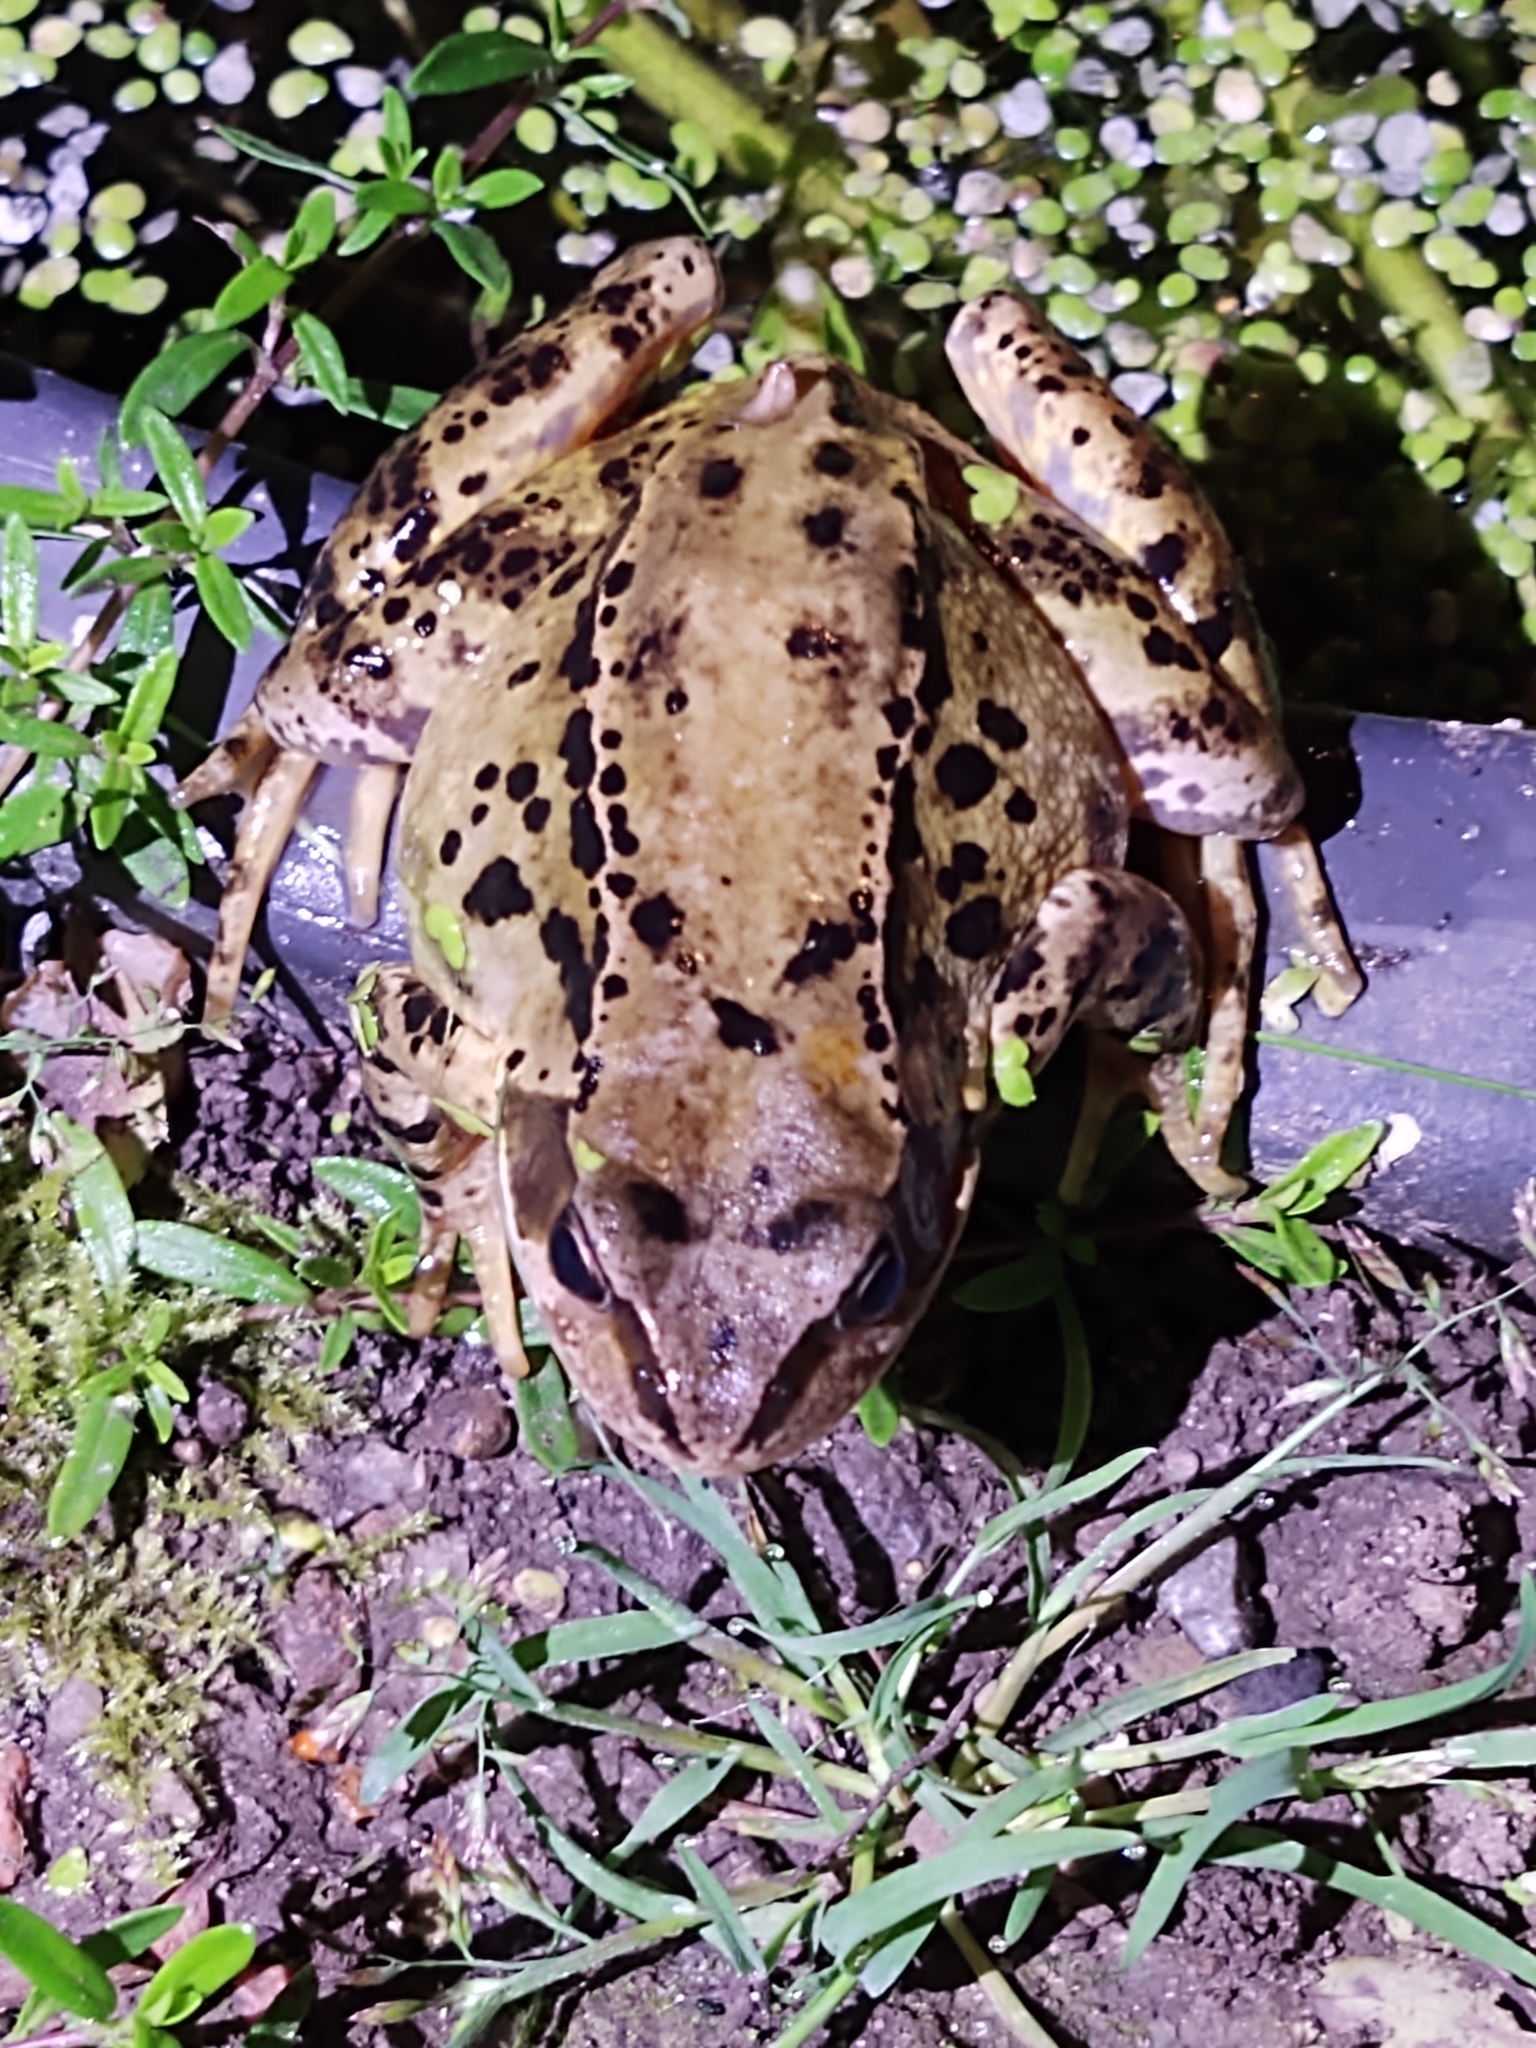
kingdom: Animalia
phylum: Chordata
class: Amphibia
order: Anura
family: Ranidae
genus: Rana
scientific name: Rana temporaria
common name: Common frog
